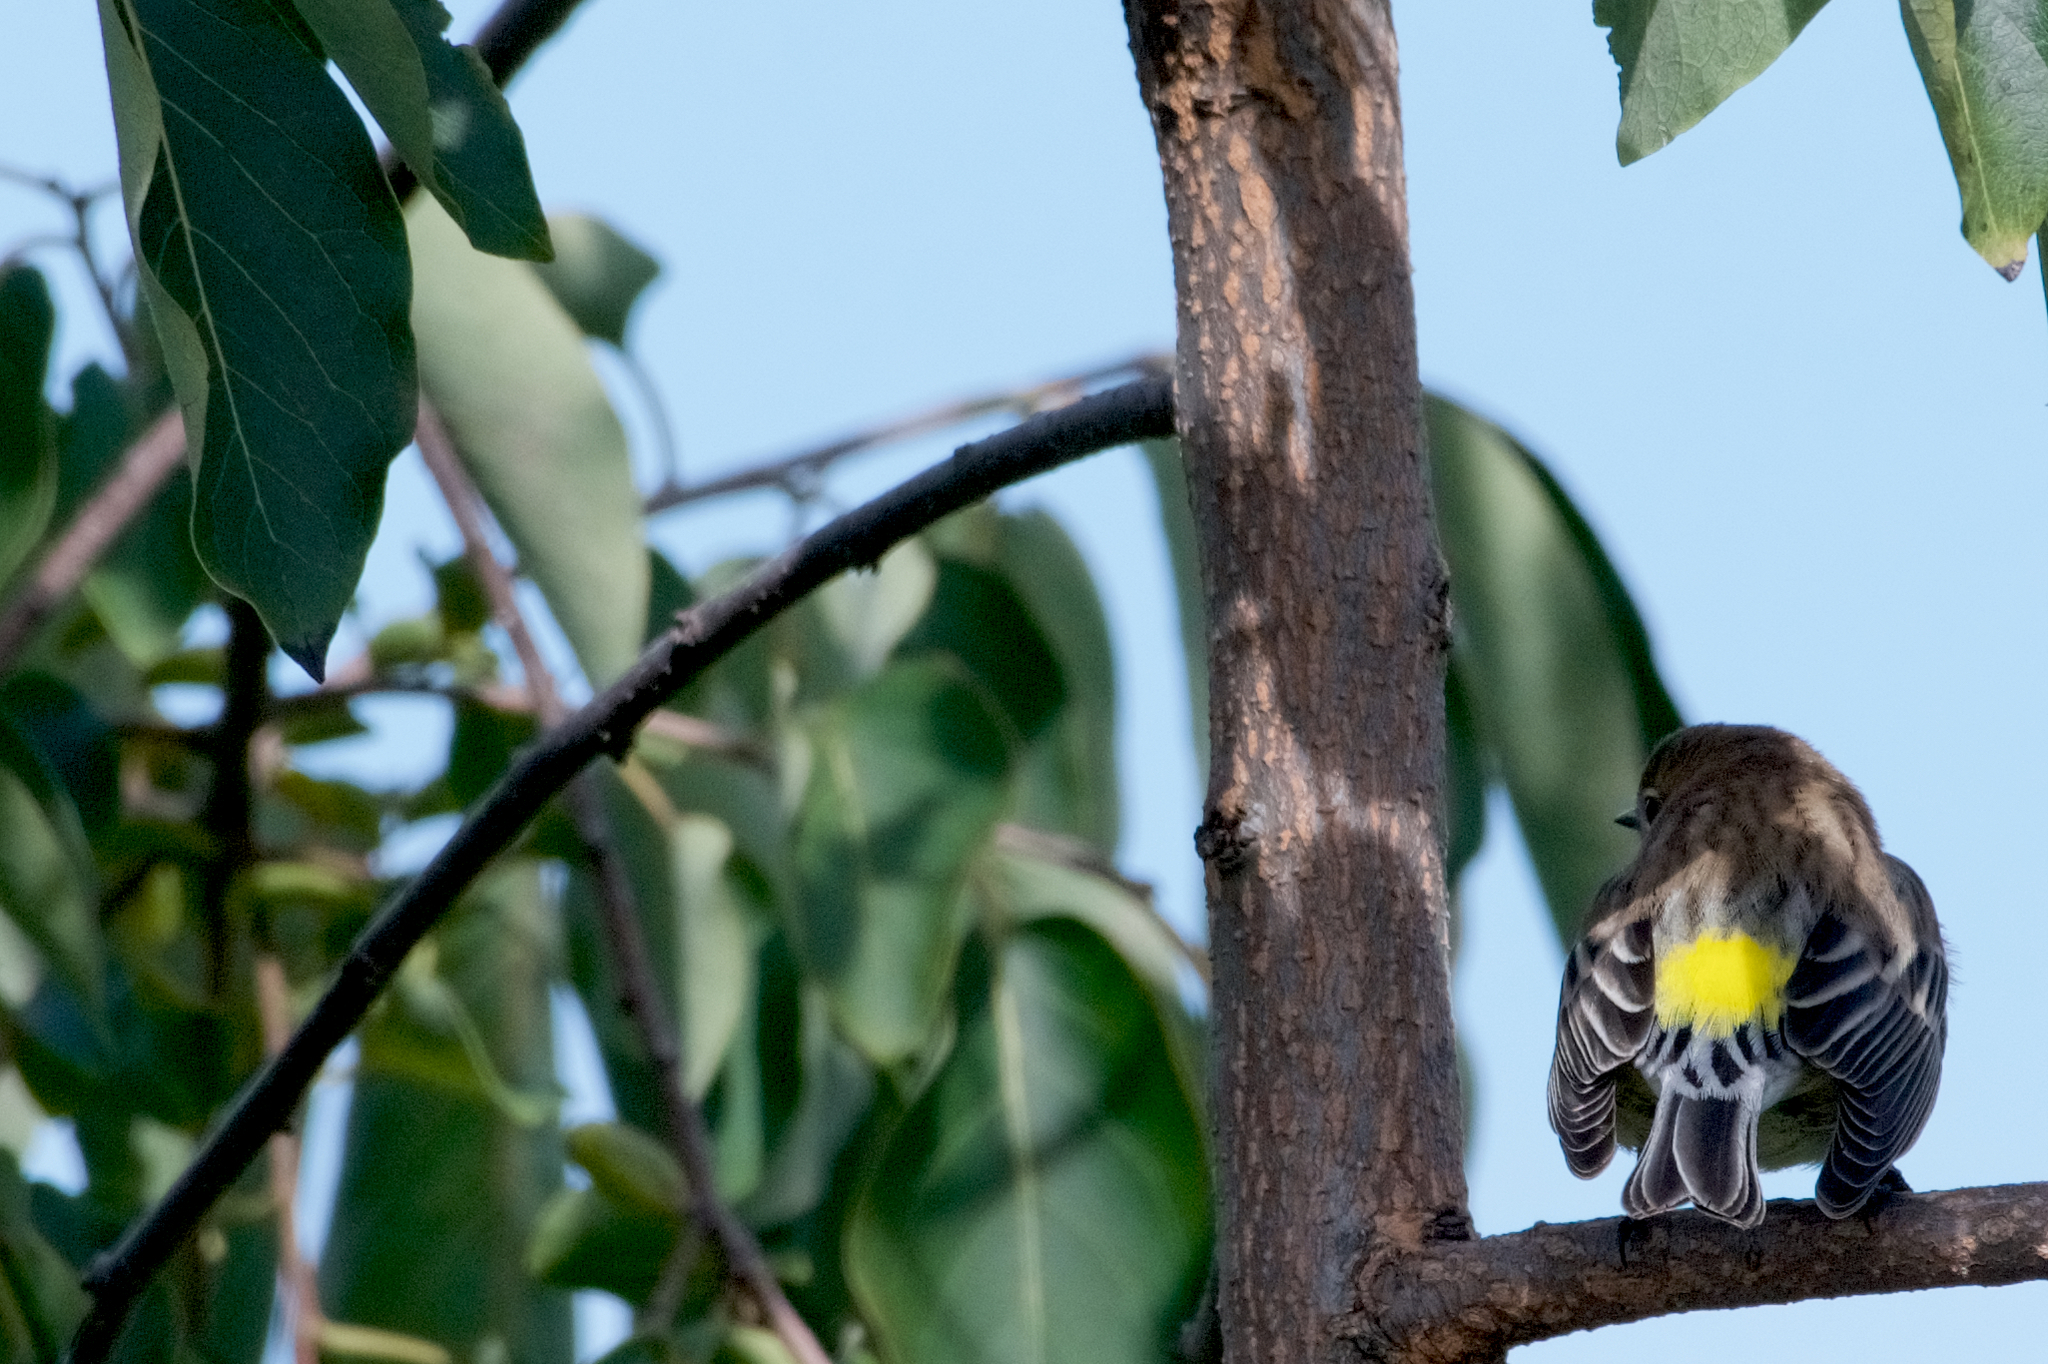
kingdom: Animalia
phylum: Chordata
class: Aves
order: Passeriformes
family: Parulidae
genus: Setophaga
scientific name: Setophaga coronata
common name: Myrtle warbler
